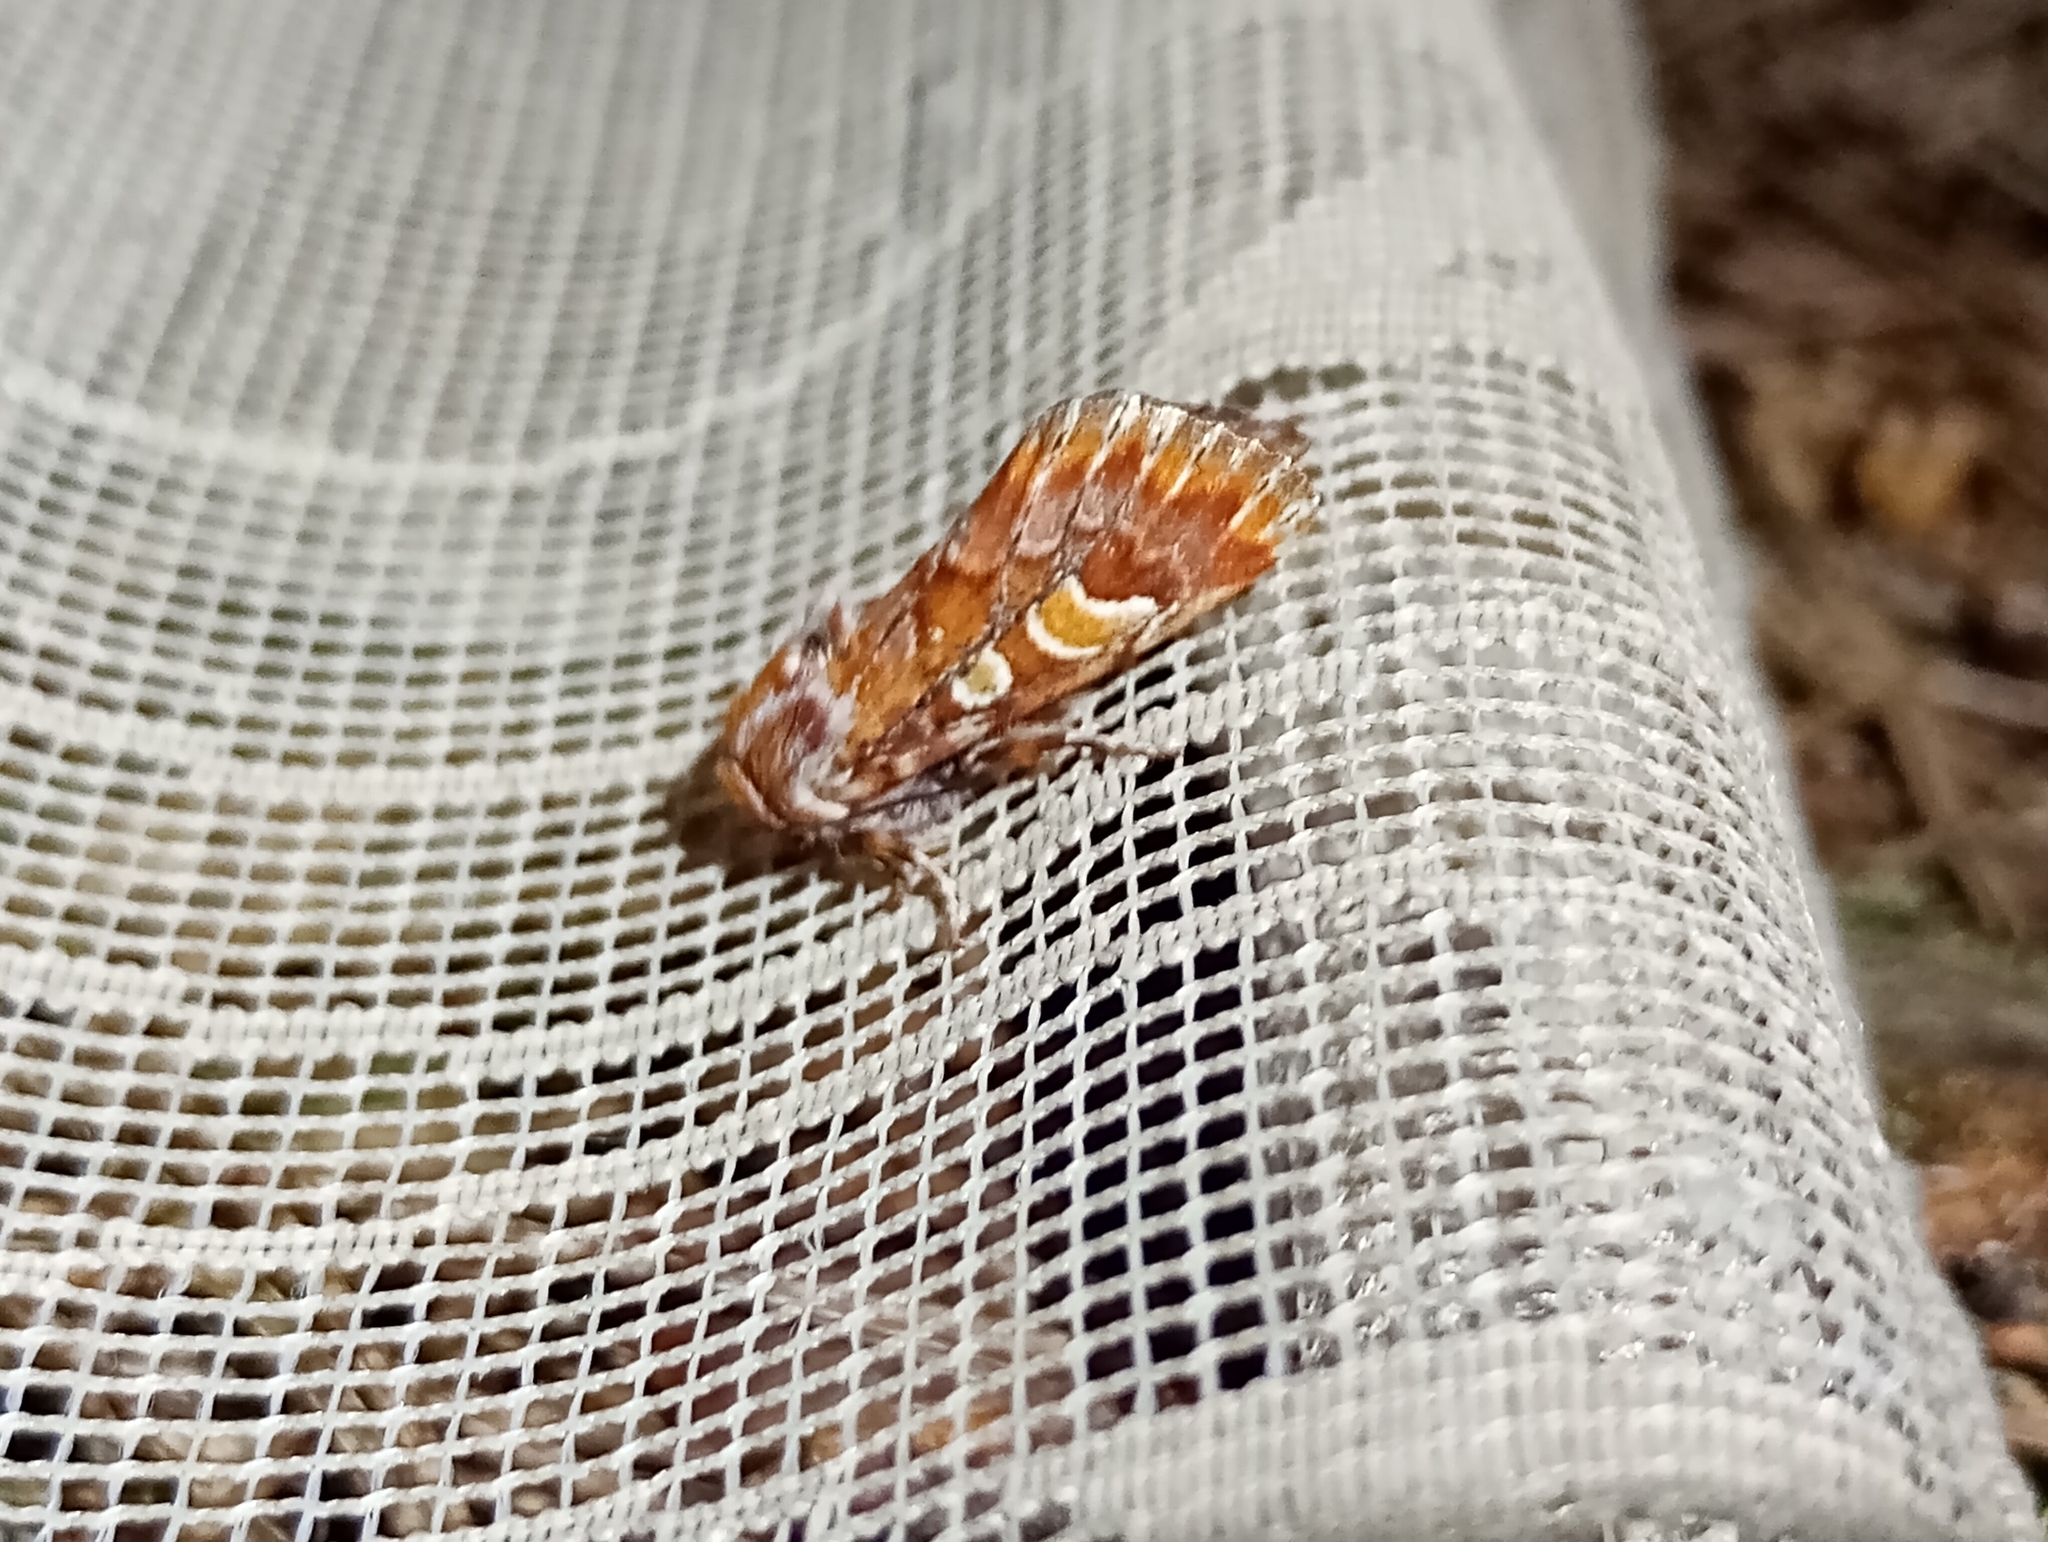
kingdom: Animalia
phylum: Arthropoda
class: Insecta
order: Lepidoptera
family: Noctuidae
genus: Panolis
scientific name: Panolis flammea
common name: Pine beauty
